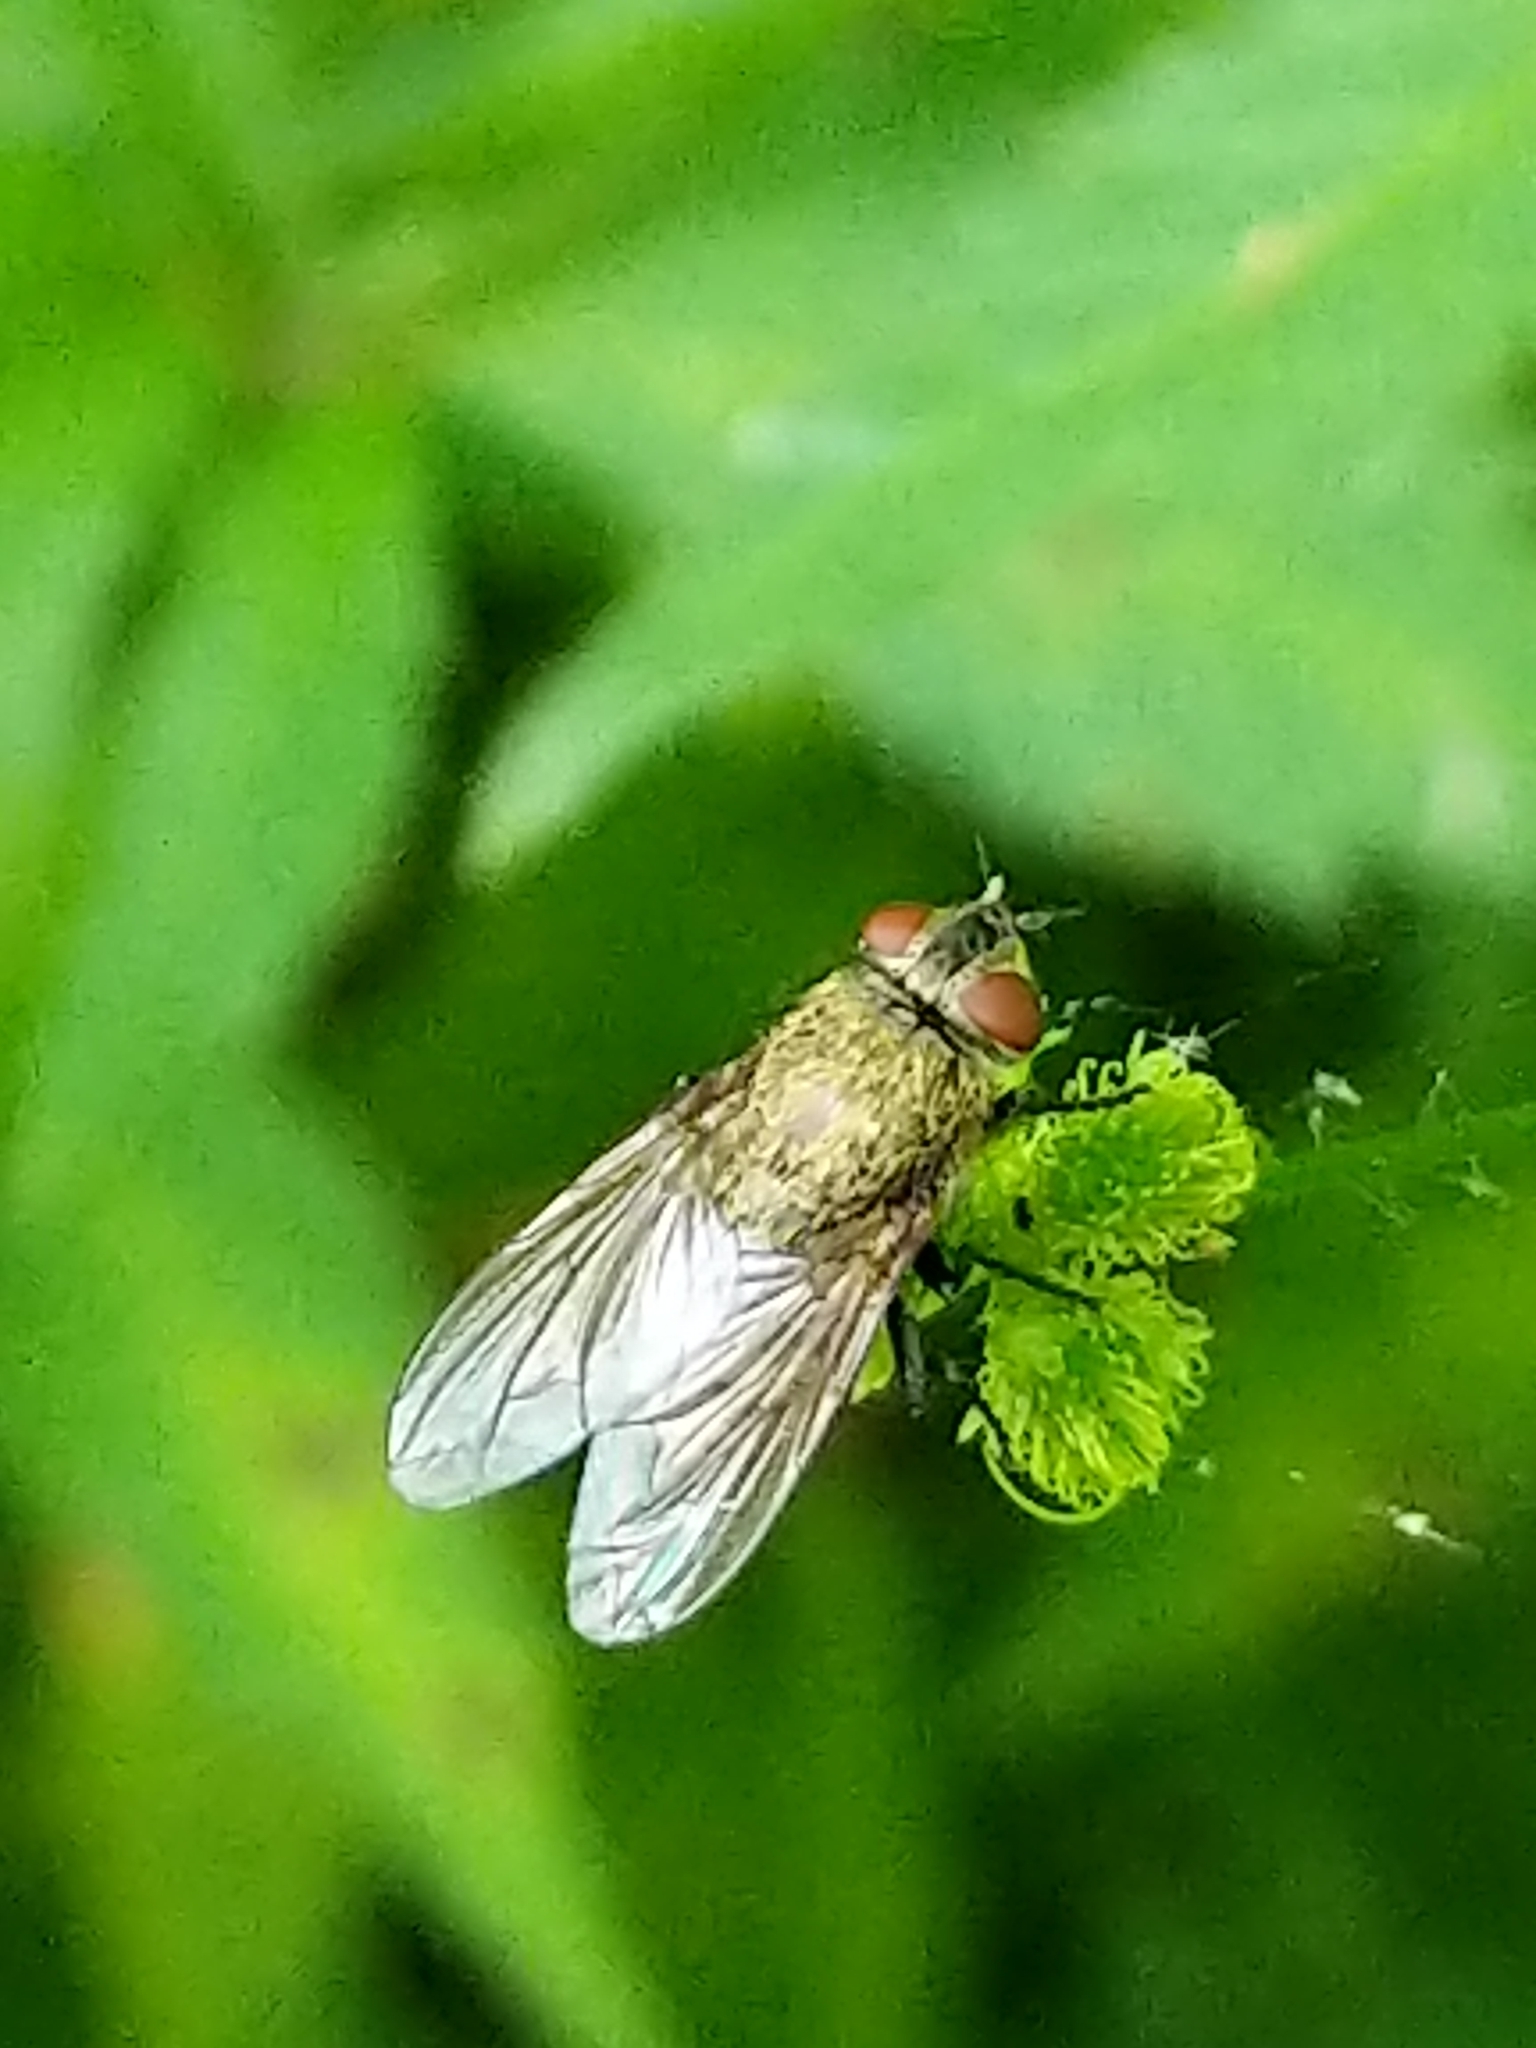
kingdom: Animalia
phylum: Arthropoda
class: Insecta
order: Diptera
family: Polleniidae
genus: Pollenia
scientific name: Pollenia
